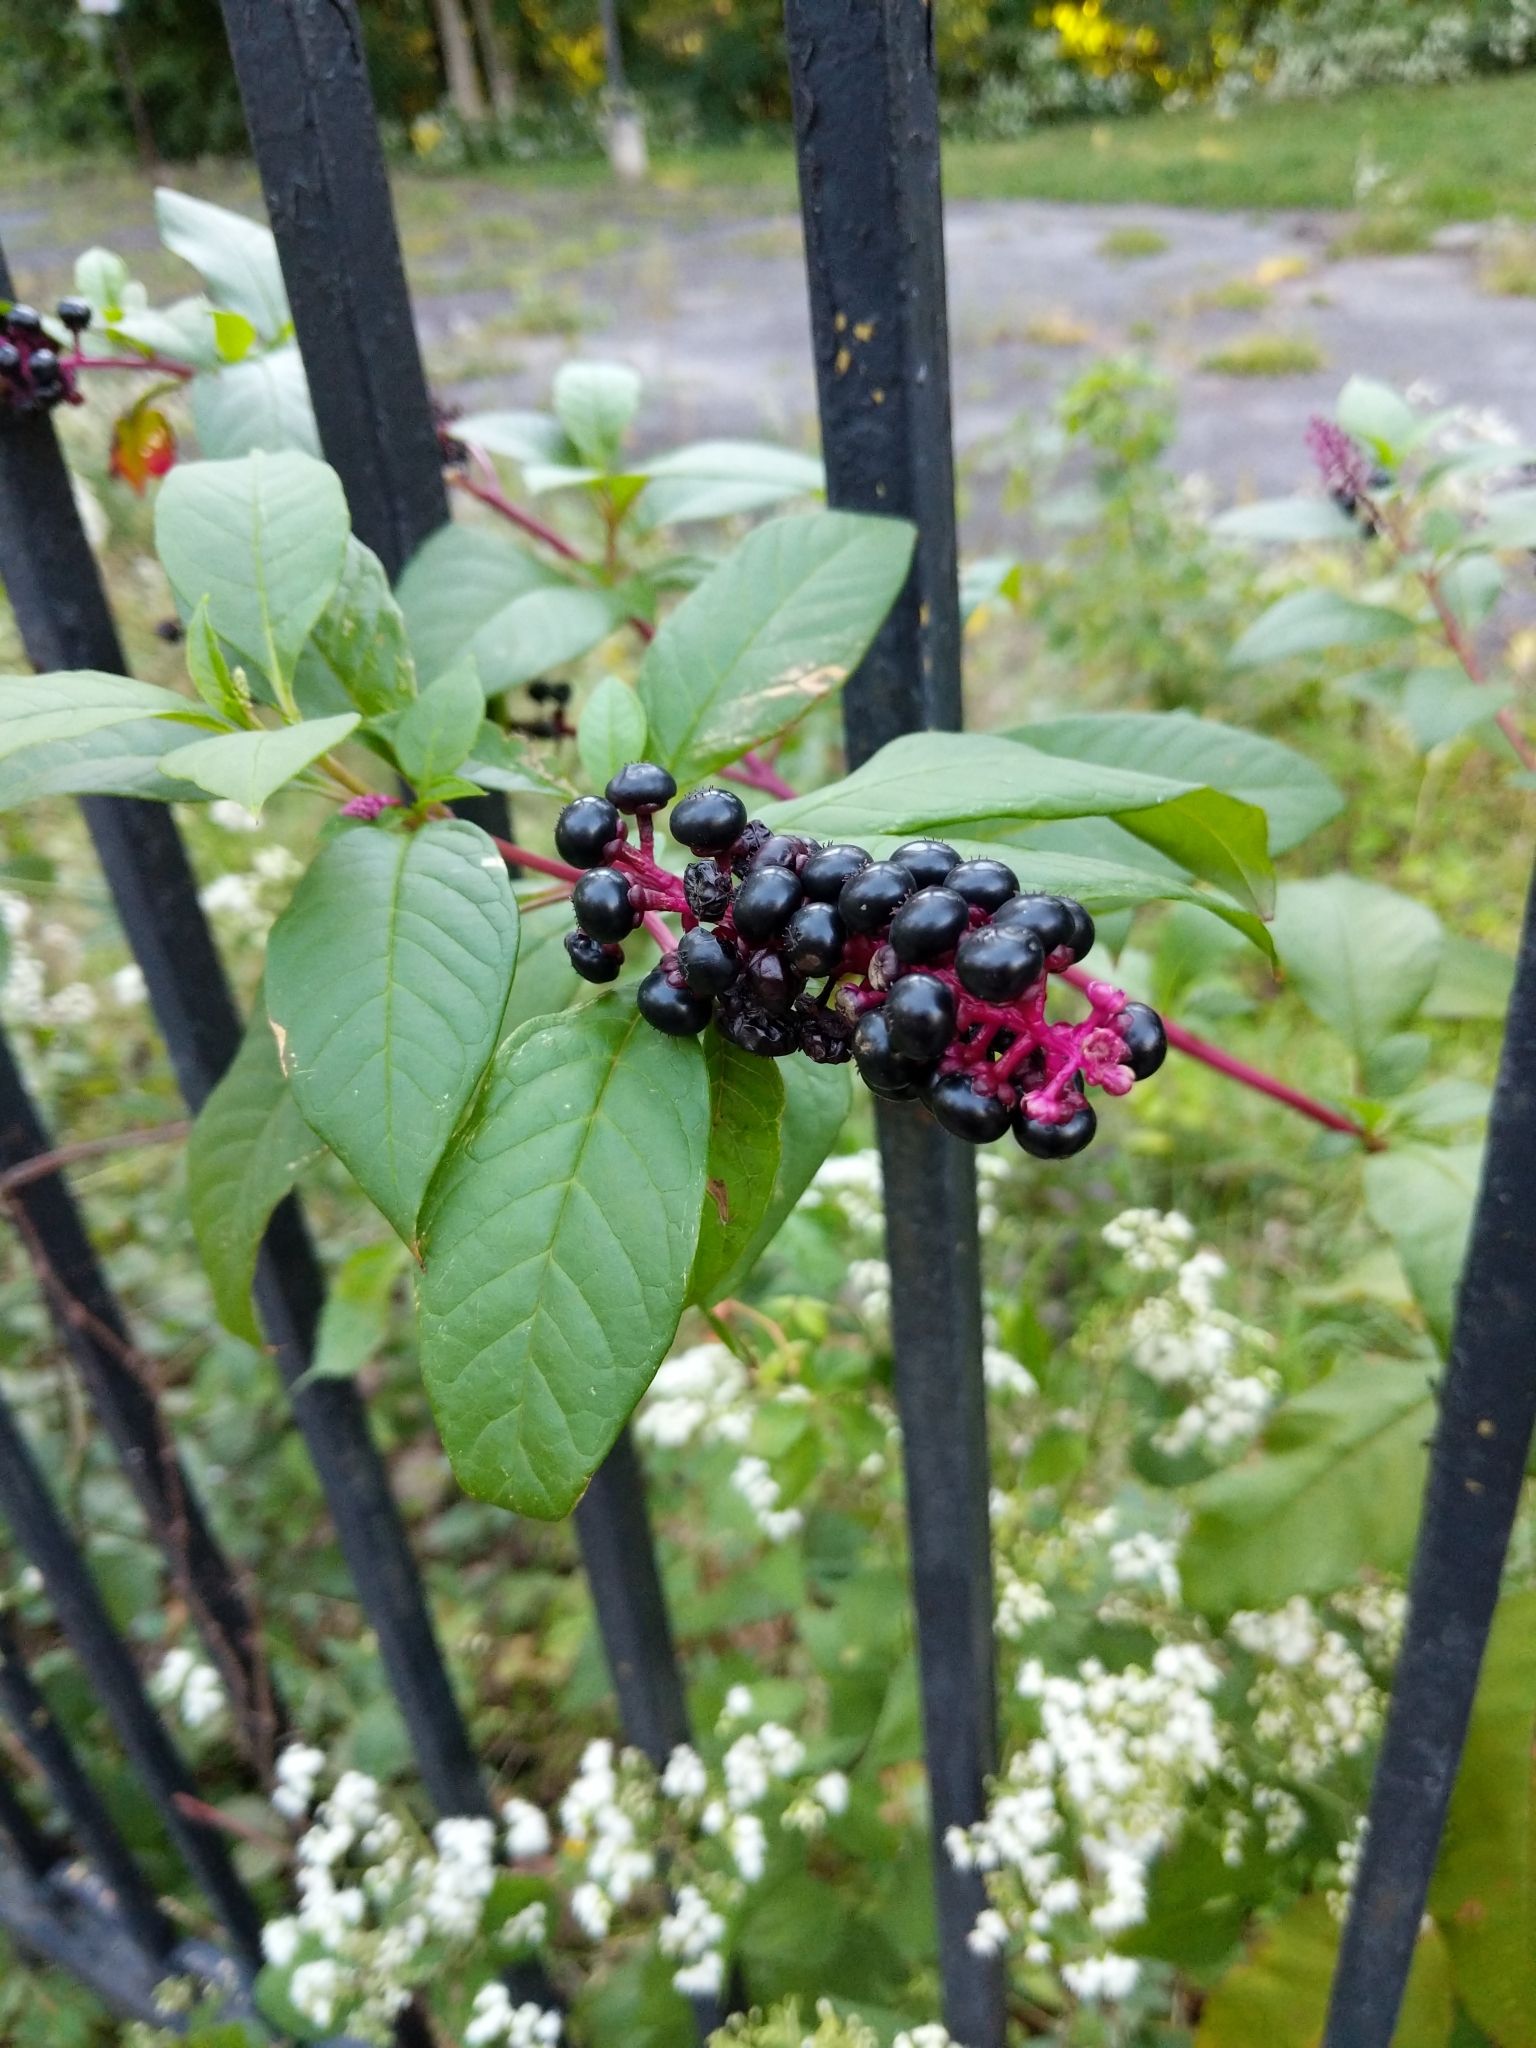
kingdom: Plantae
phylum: Tracheophyta
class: Magnoliopsida
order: Caryophyllales
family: Phytolaccaceae
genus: Phytolacca
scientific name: Phytolacca americana
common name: American pokeweed
